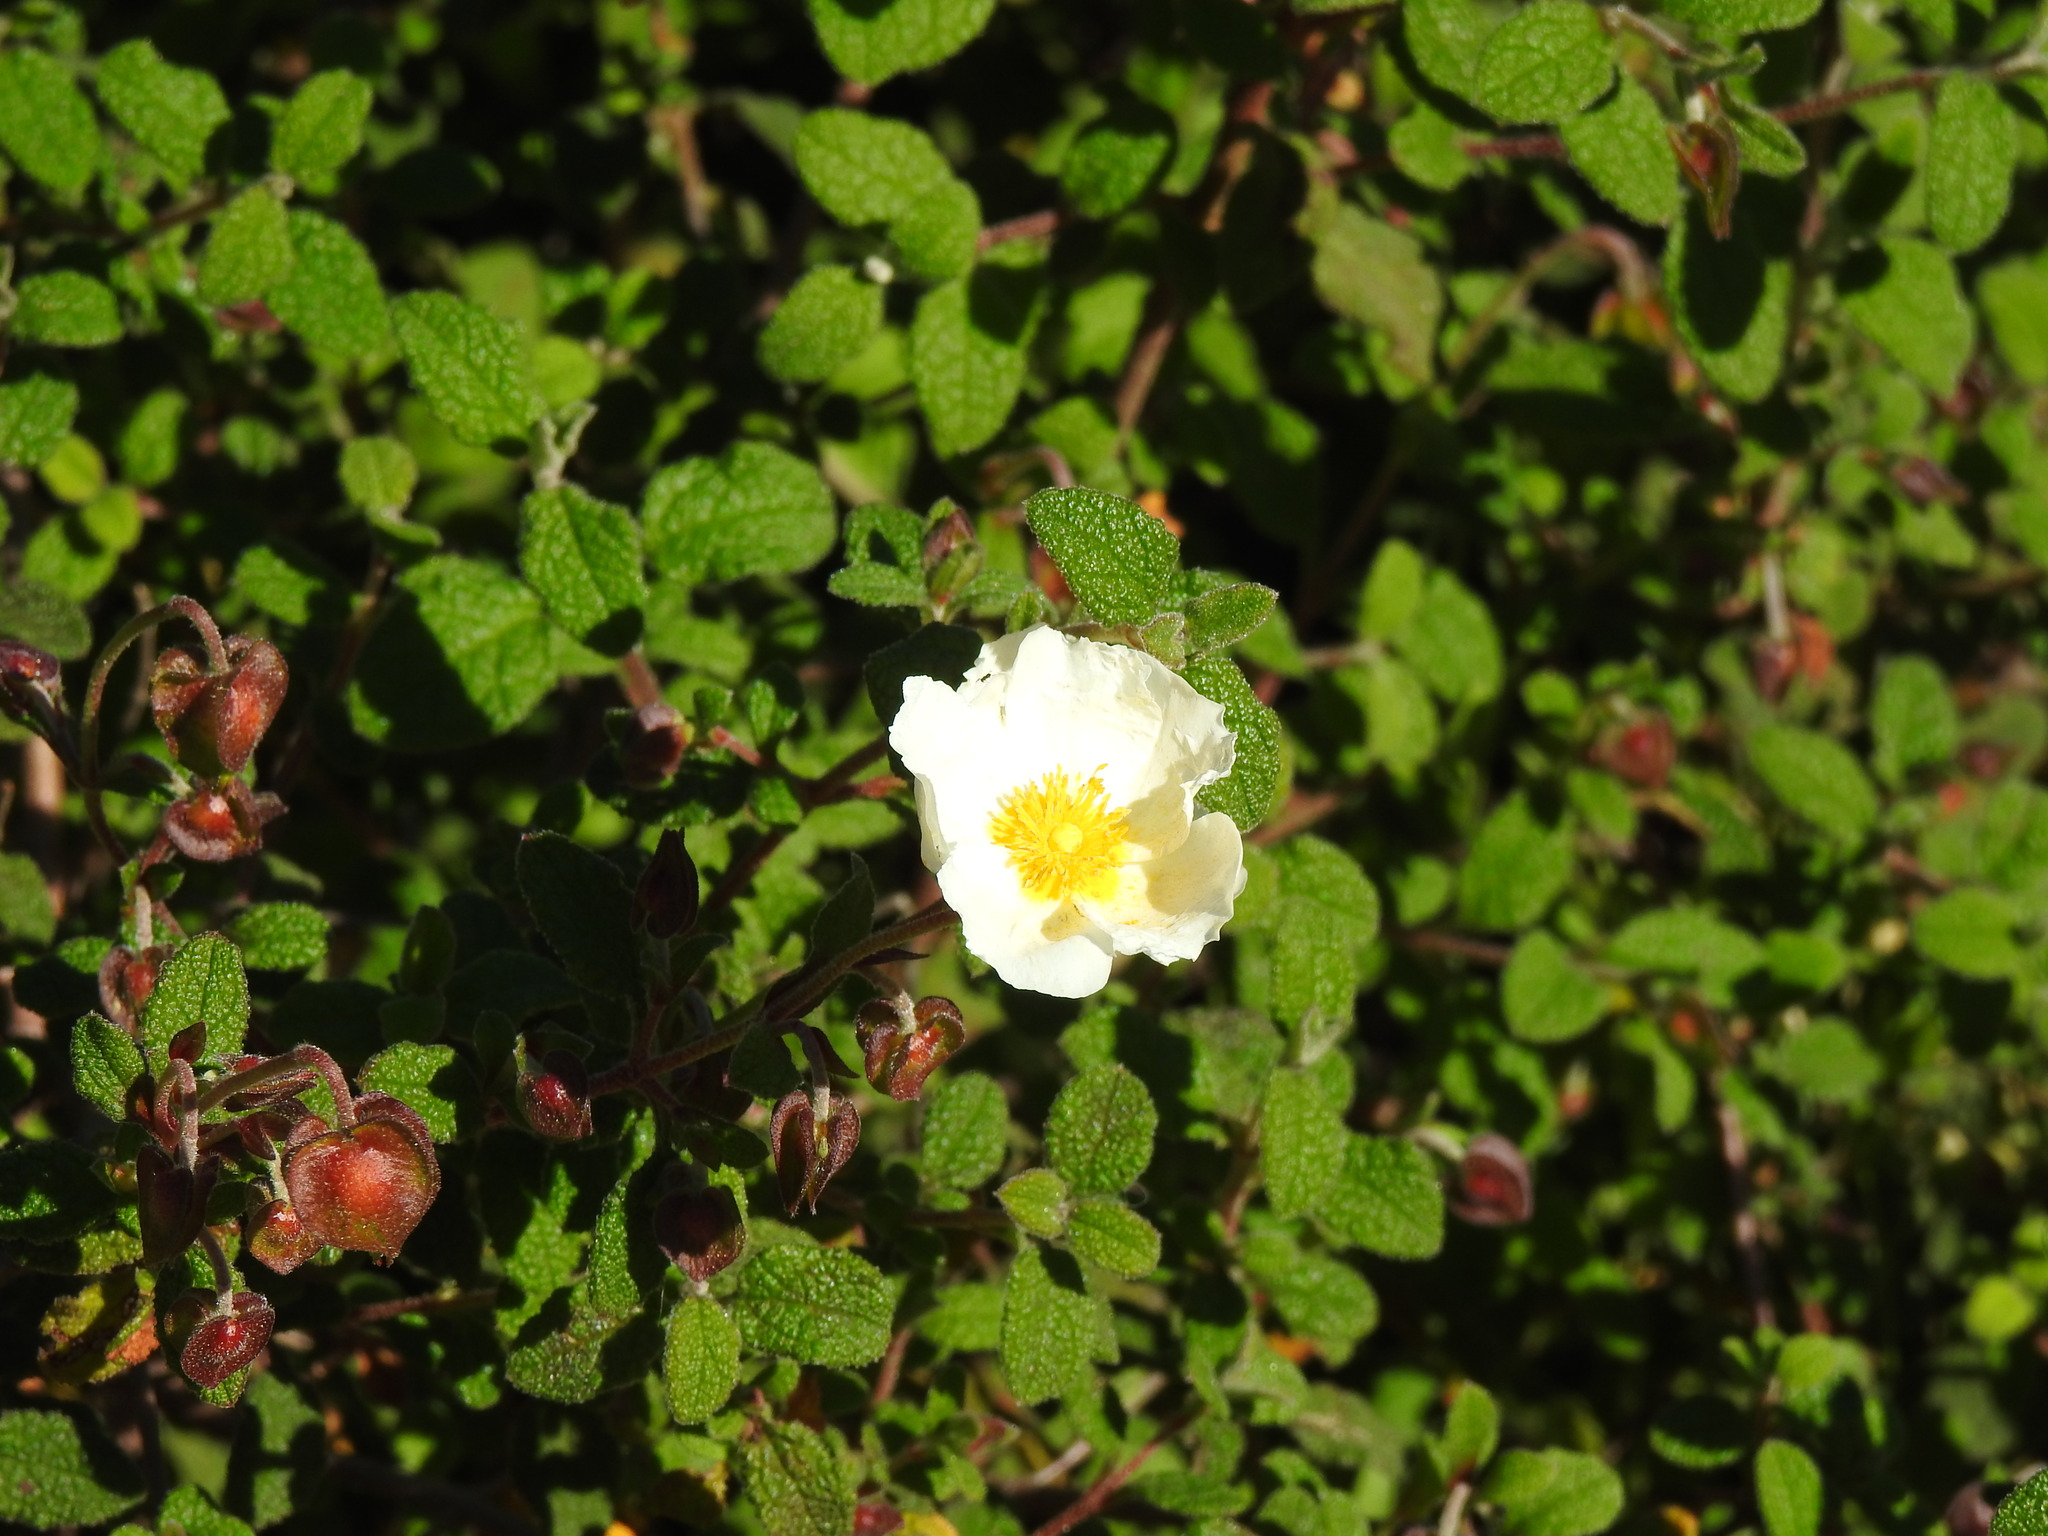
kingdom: Plantae
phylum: Tracheophyta
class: Magnoliopsida
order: Malvales
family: Cistaceae
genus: Cistus
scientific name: Cistus salviifolius
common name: Salvia cistus
